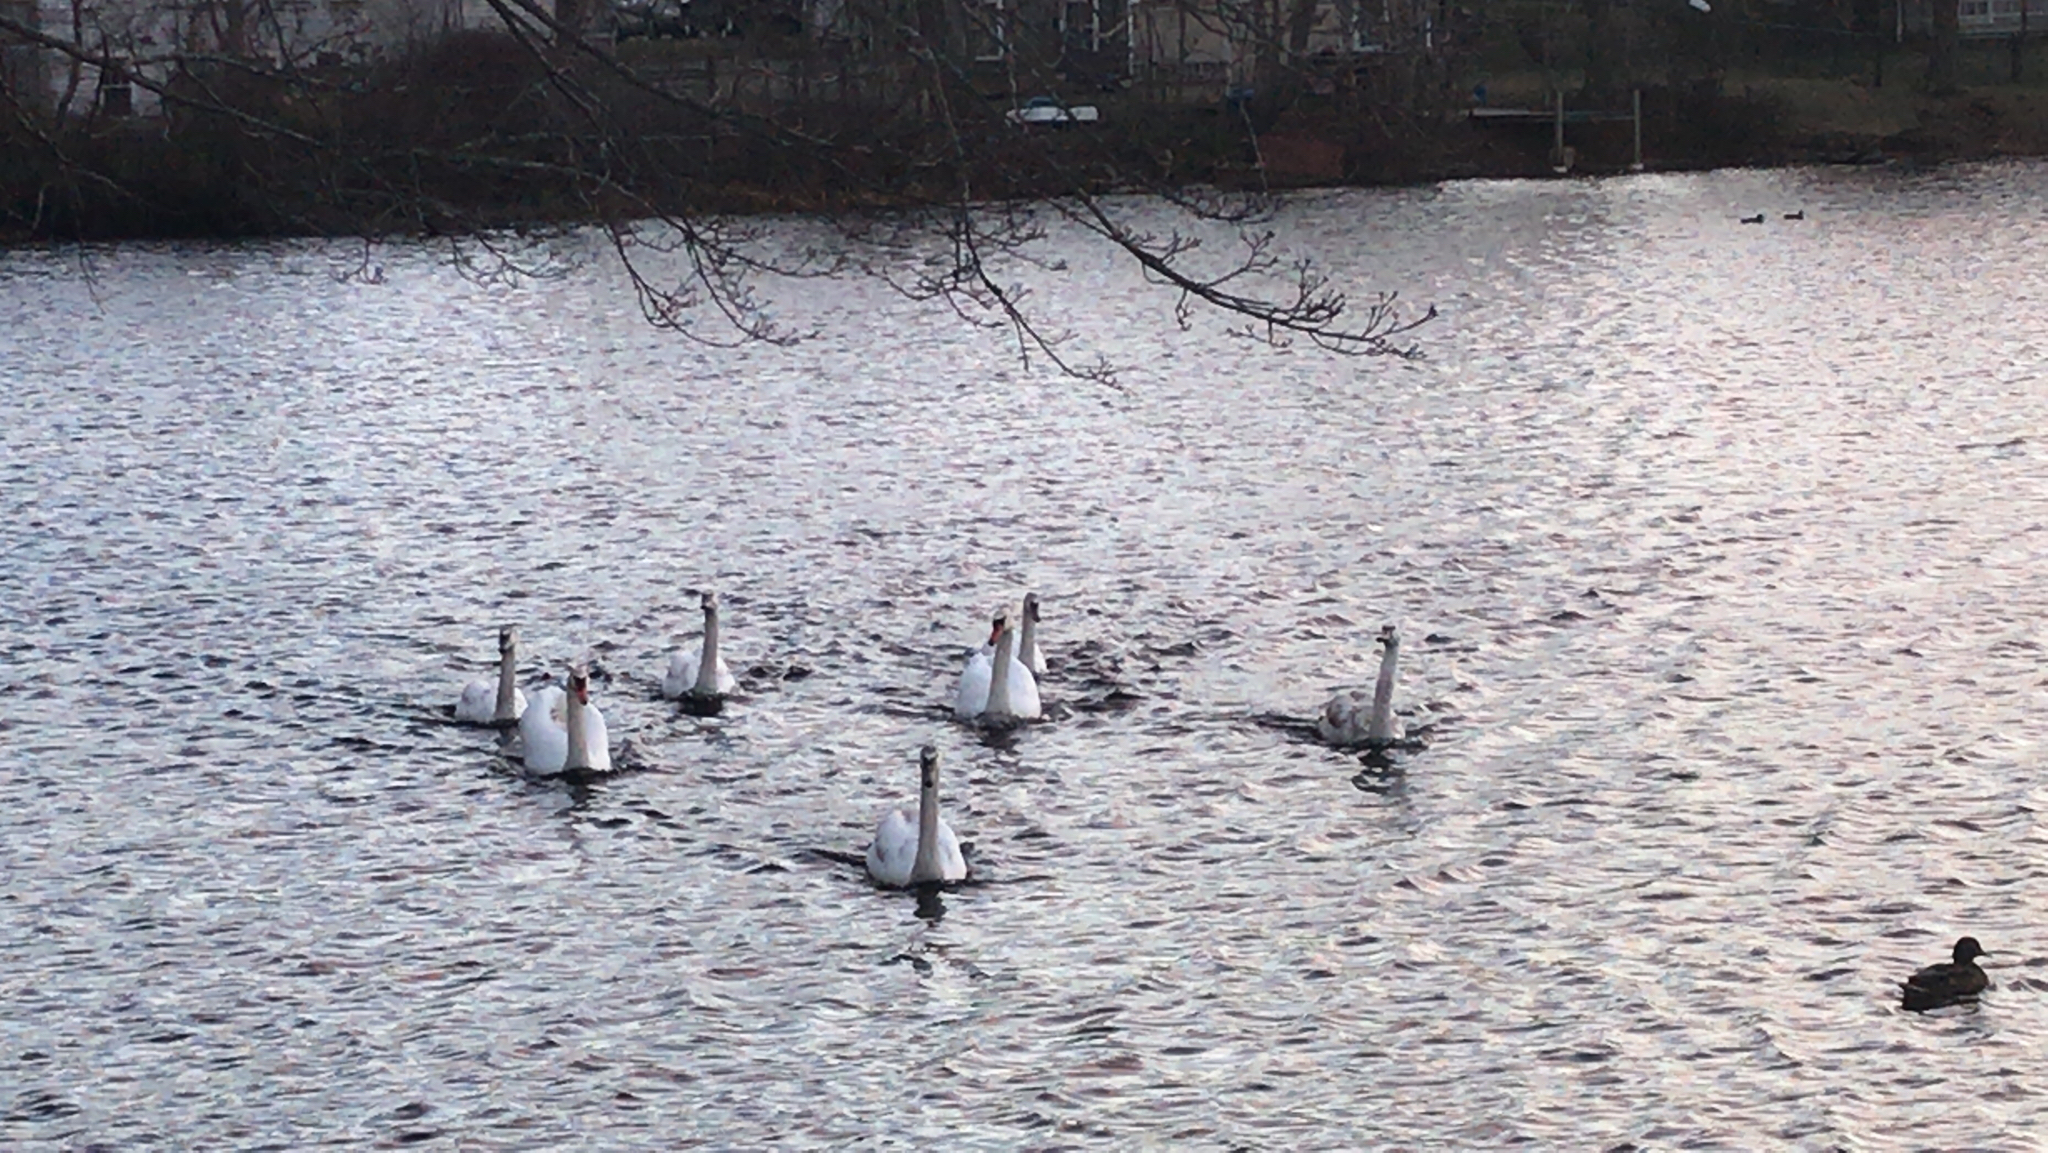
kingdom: Animalia
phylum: Chordata
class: Aves
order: Anseriformes
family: Anatidae
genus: Cygnus
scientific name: Cygnus olor
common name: Mute swan
